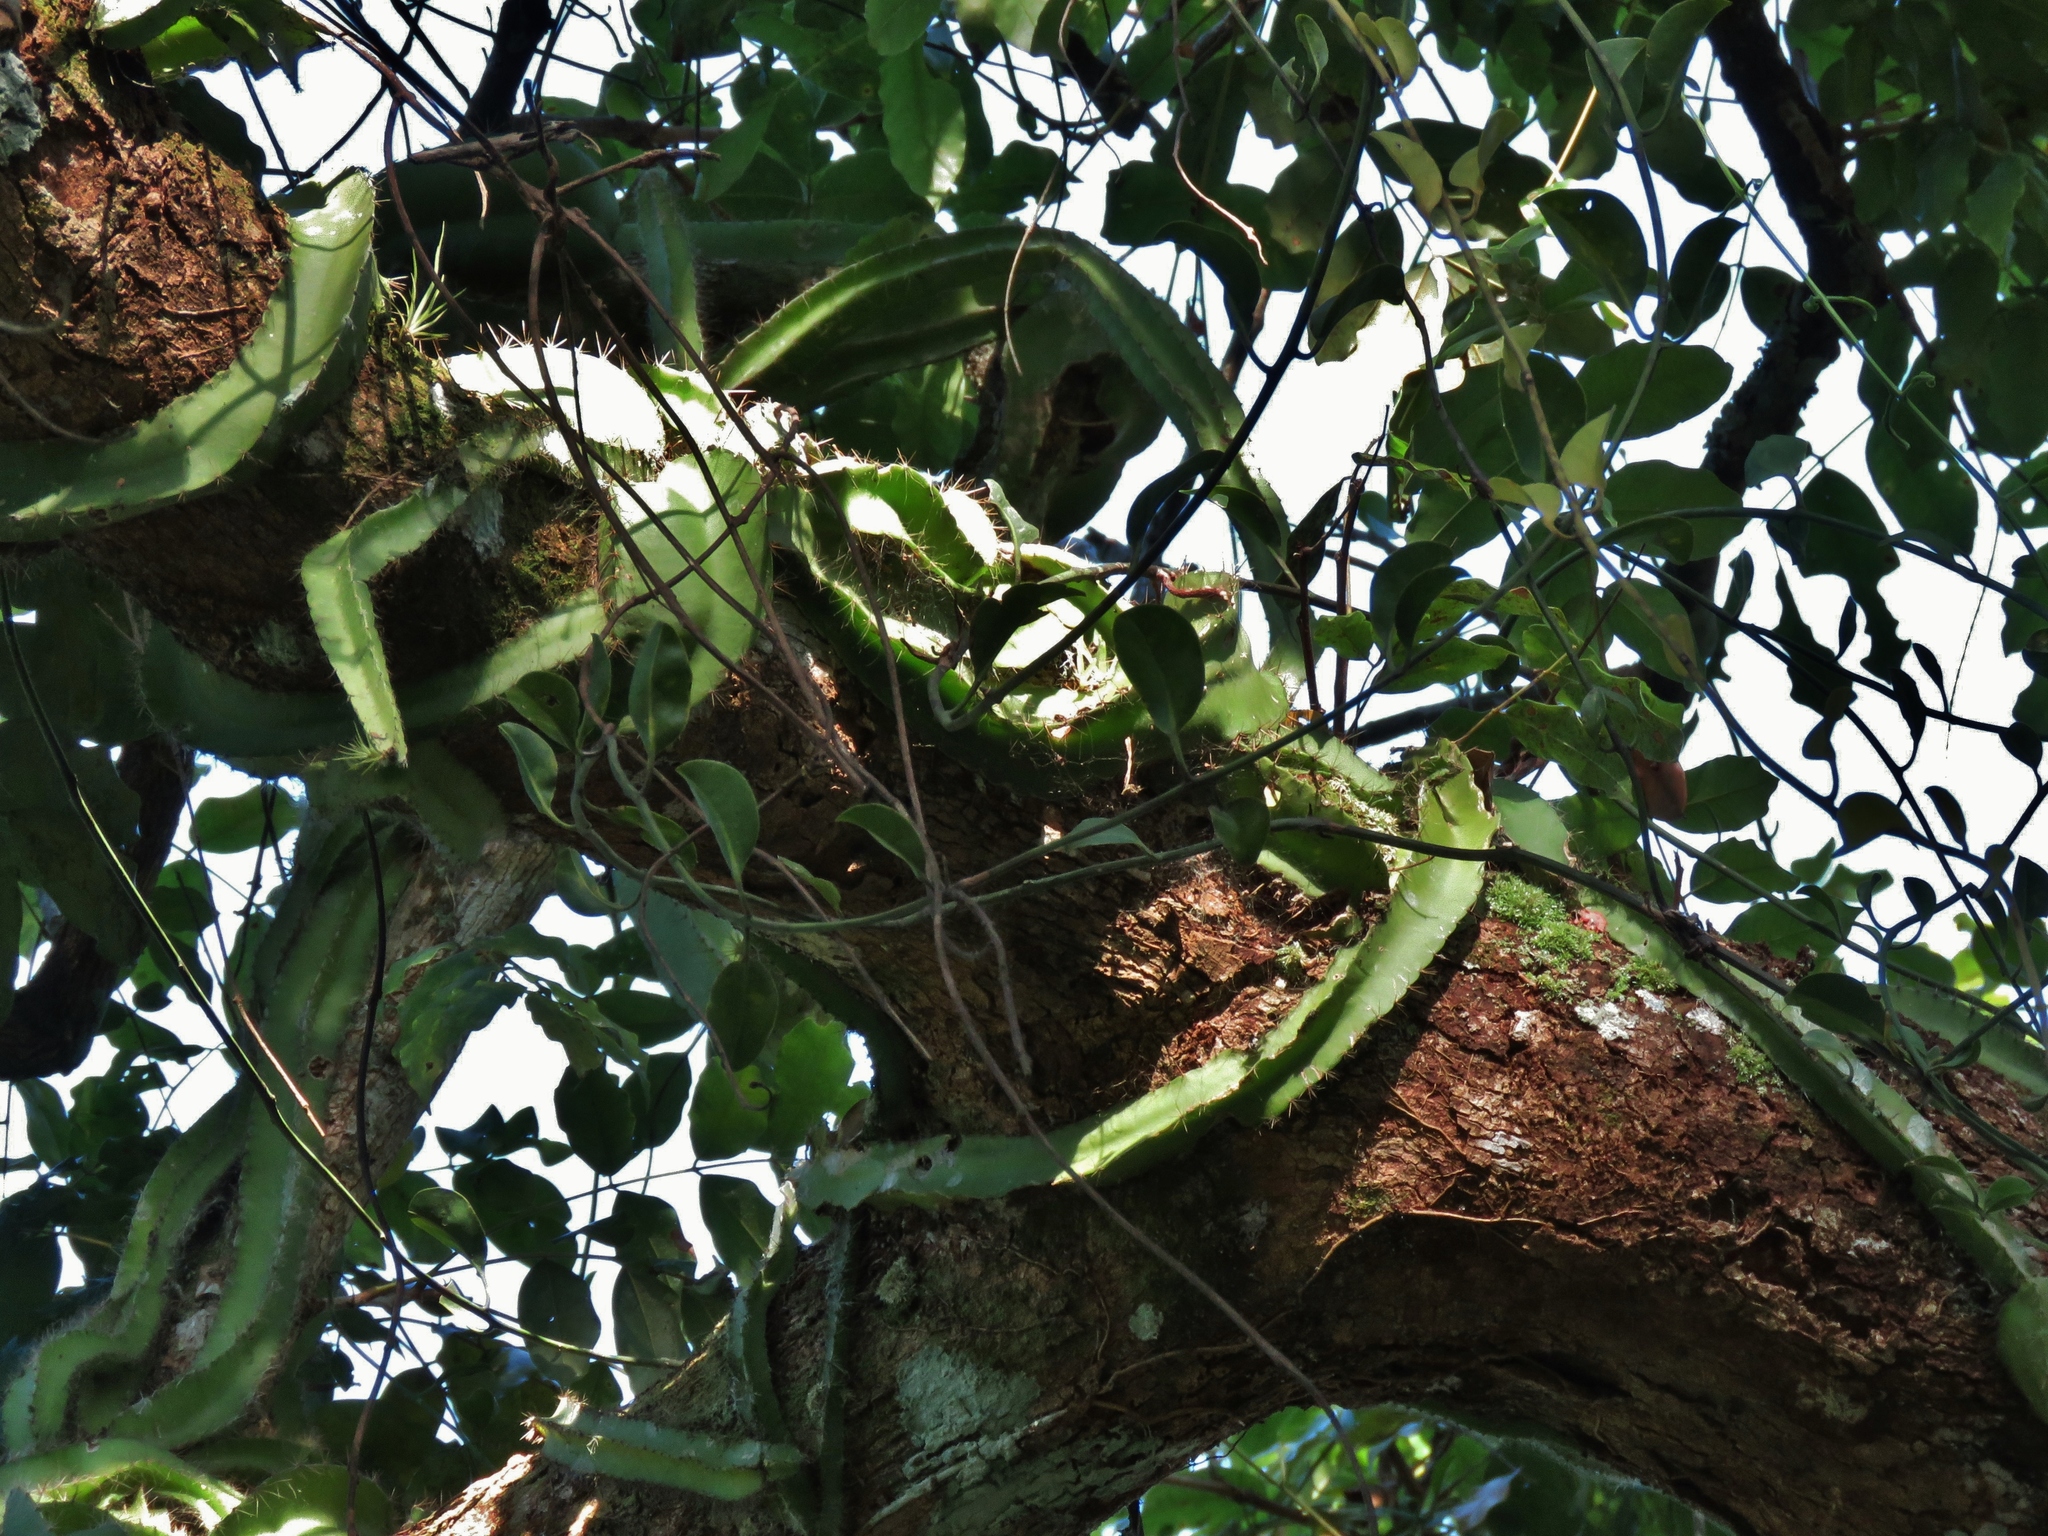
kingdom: Plantae
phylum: Tracheophyta
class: Magnoliopsida
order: Caryophyllales
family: Cactaceae
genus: Deamia
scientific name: Deamia testudo
